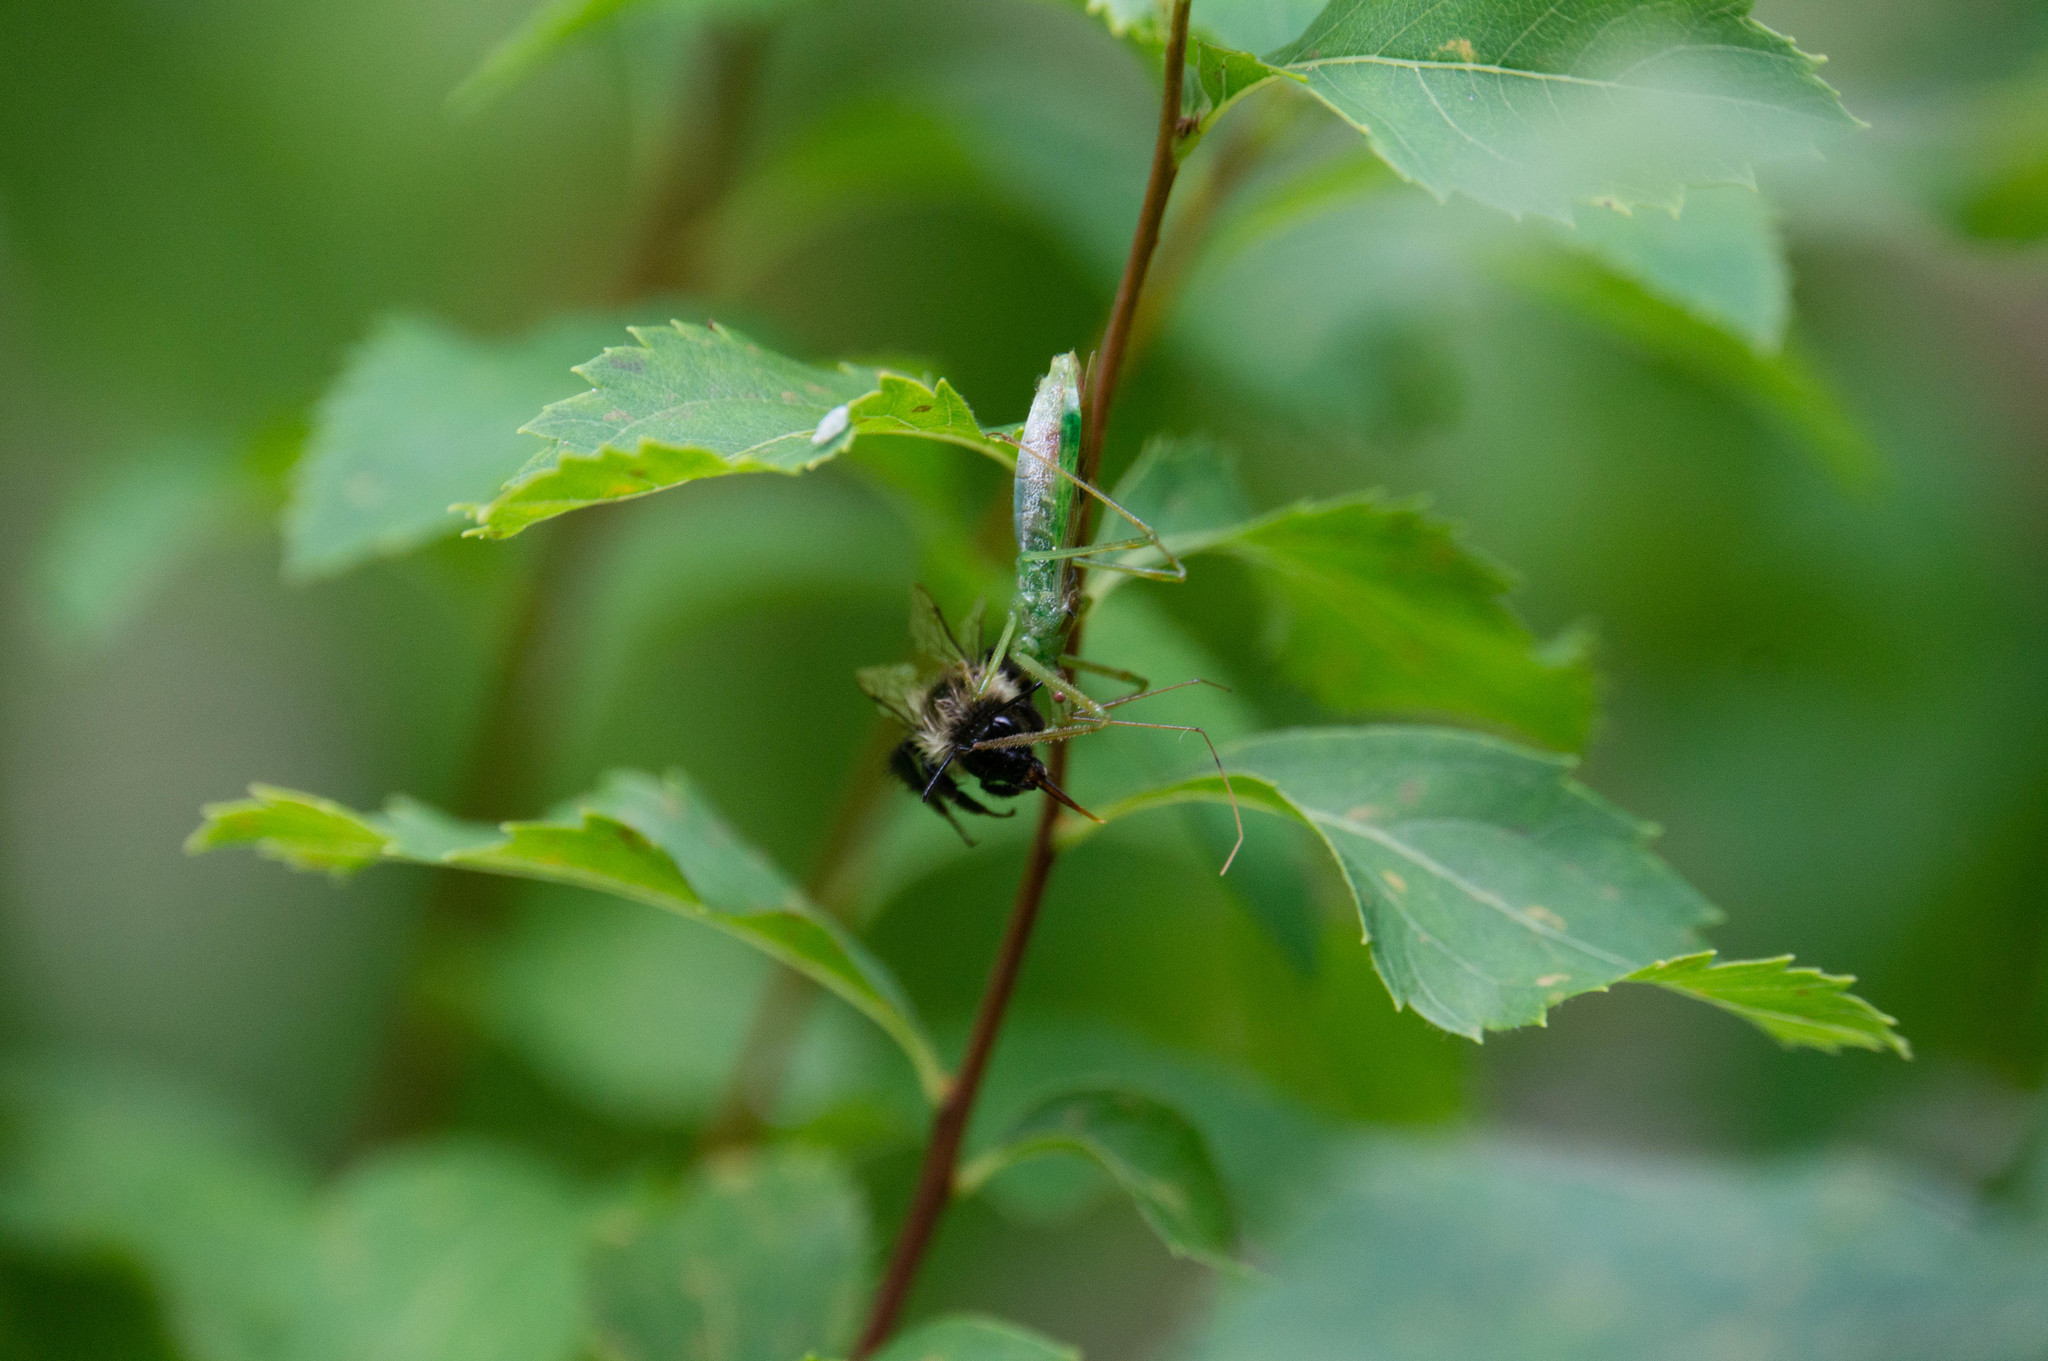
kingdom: Animalia
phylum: Arthropoda
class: Insecta
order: Hemiptera
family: Reduviidae
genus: Zelus
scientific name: Zelus luridus
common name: Pale green assassin bug
